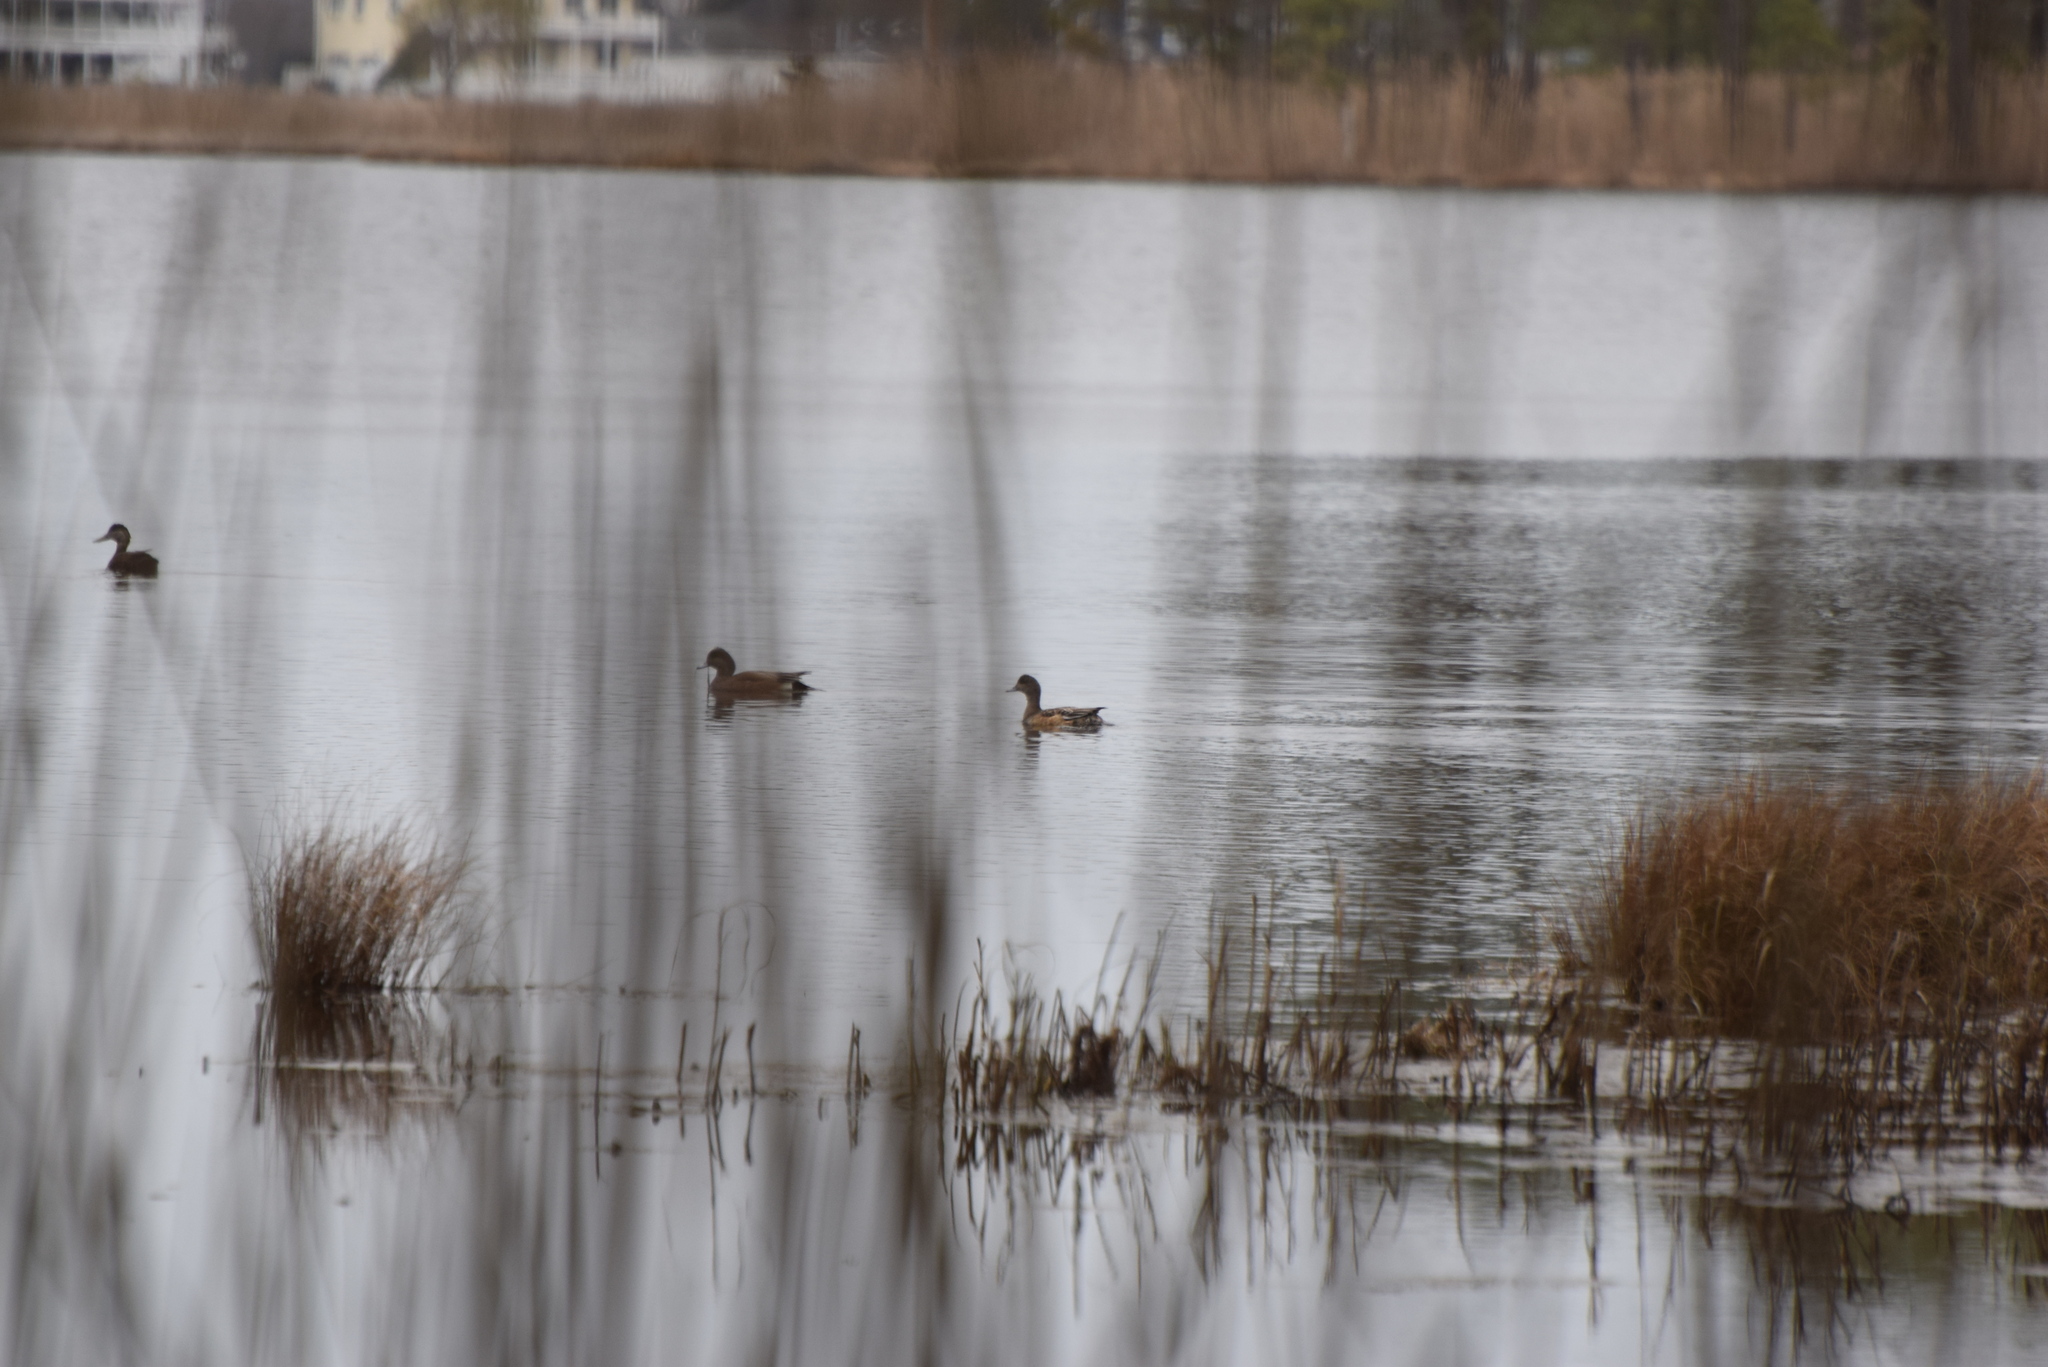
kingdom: Animalia
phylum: Chordata
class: Aves
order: Anseriformes
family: Anatidae
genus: Mareca
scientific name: Mareca americana
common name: American wigeon
